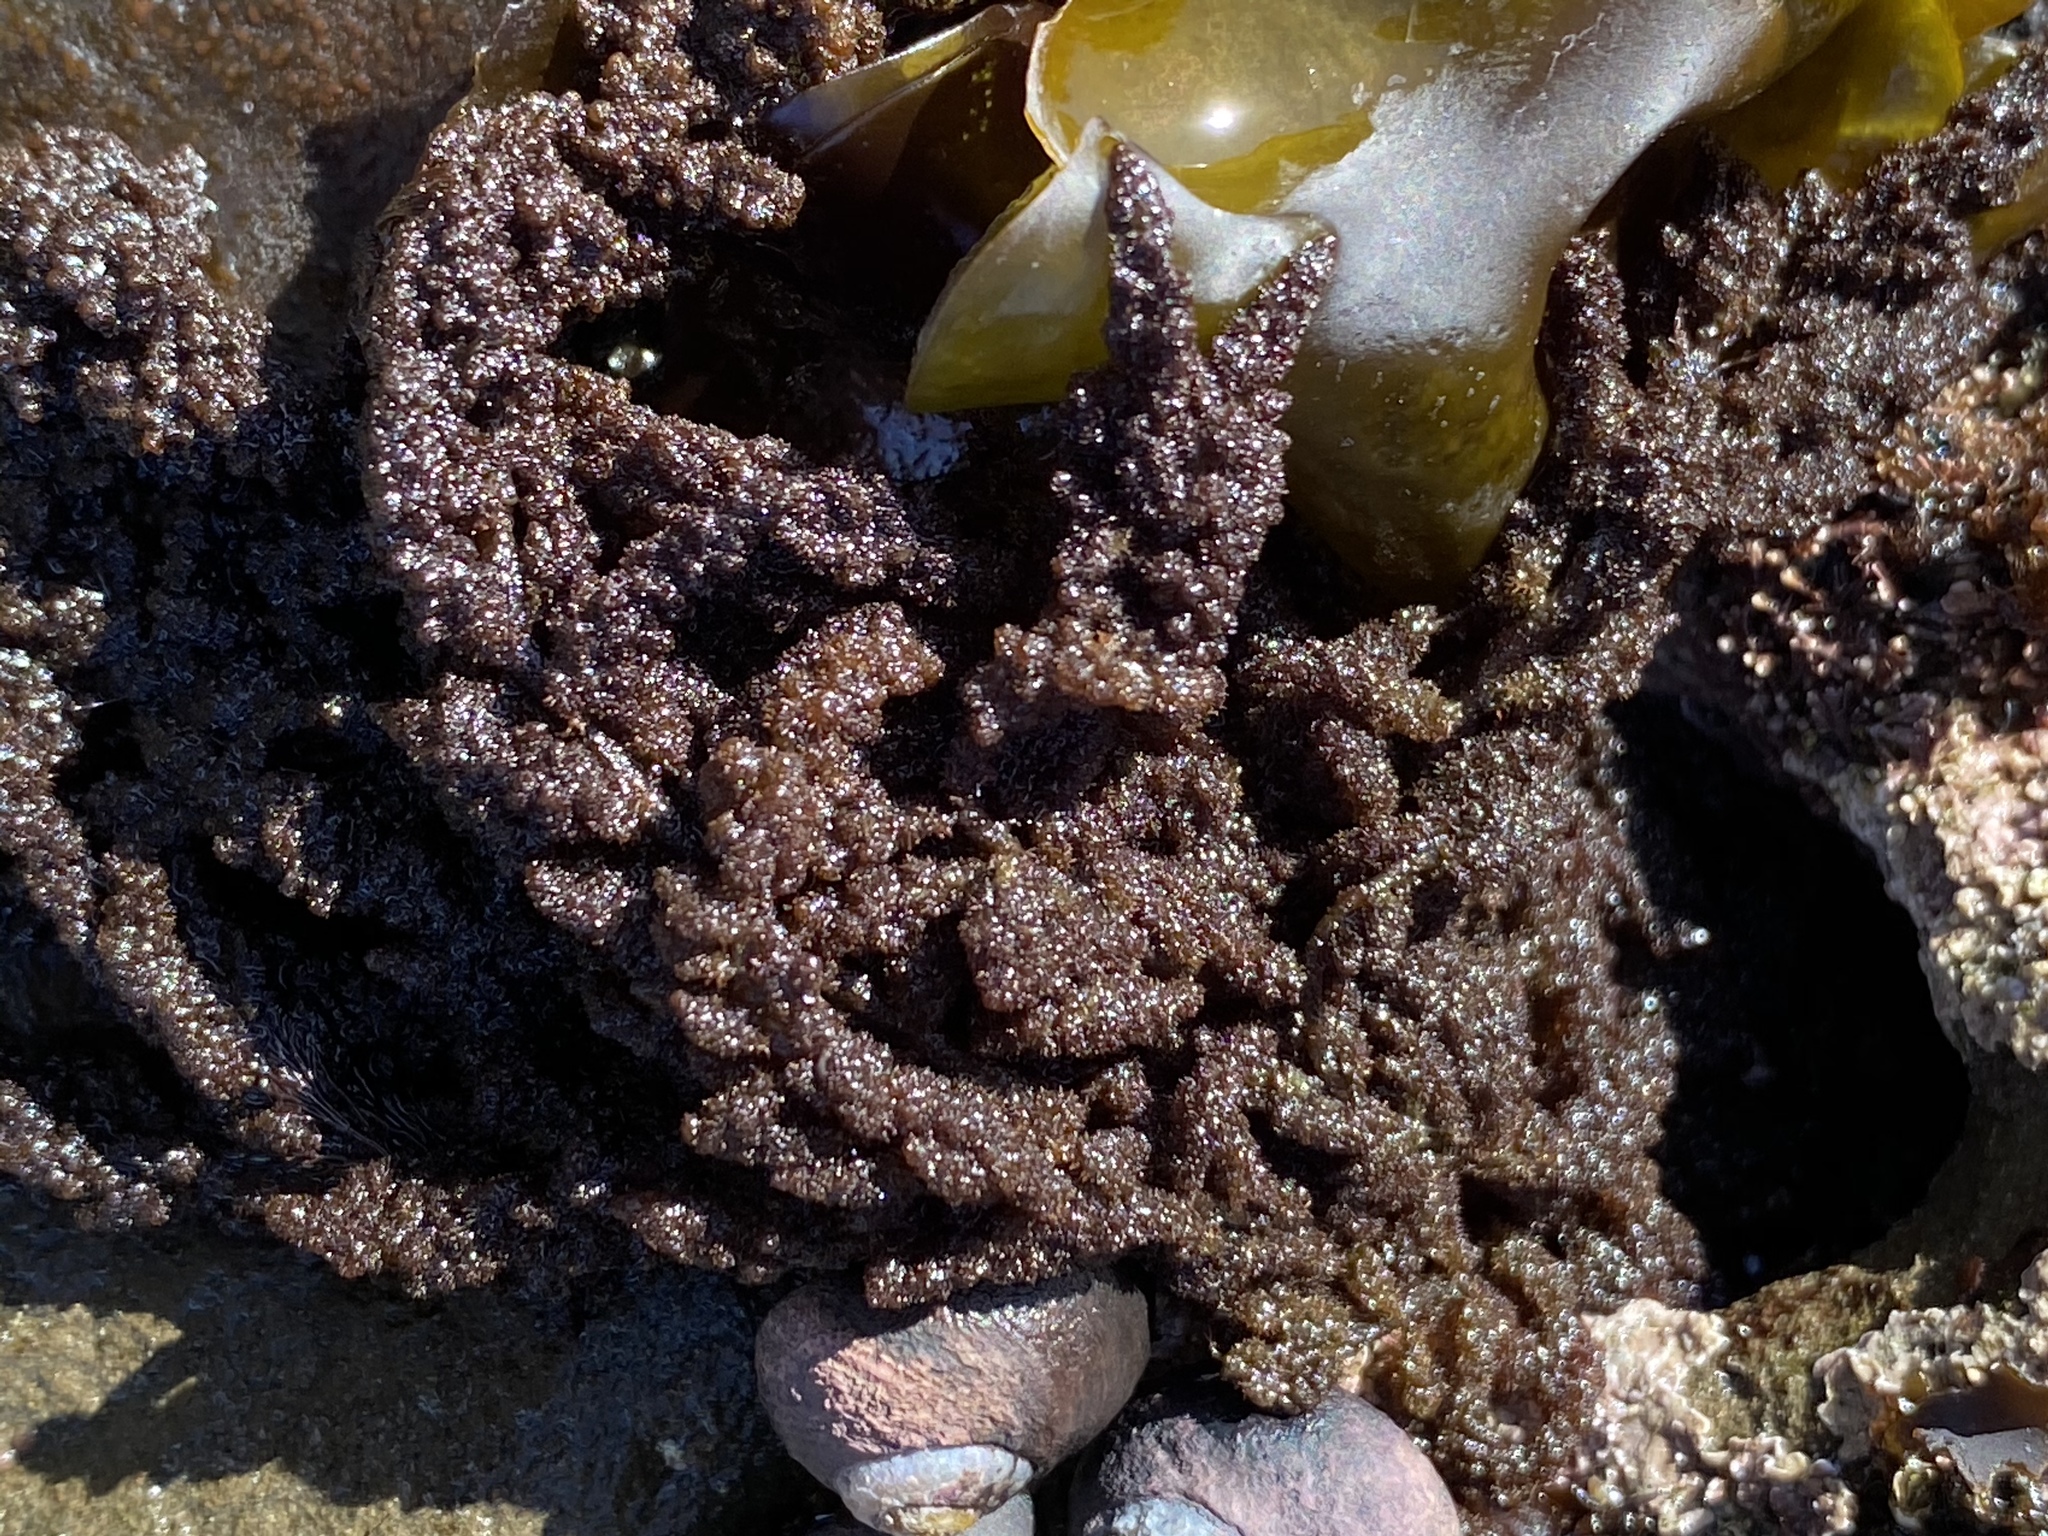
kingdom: Plantae
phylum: Rhodophyta
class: Florideophyceae
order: Ceramiales
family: Callithamniaceae
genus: Callithamnion
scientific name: Callithamnion pikeanum
